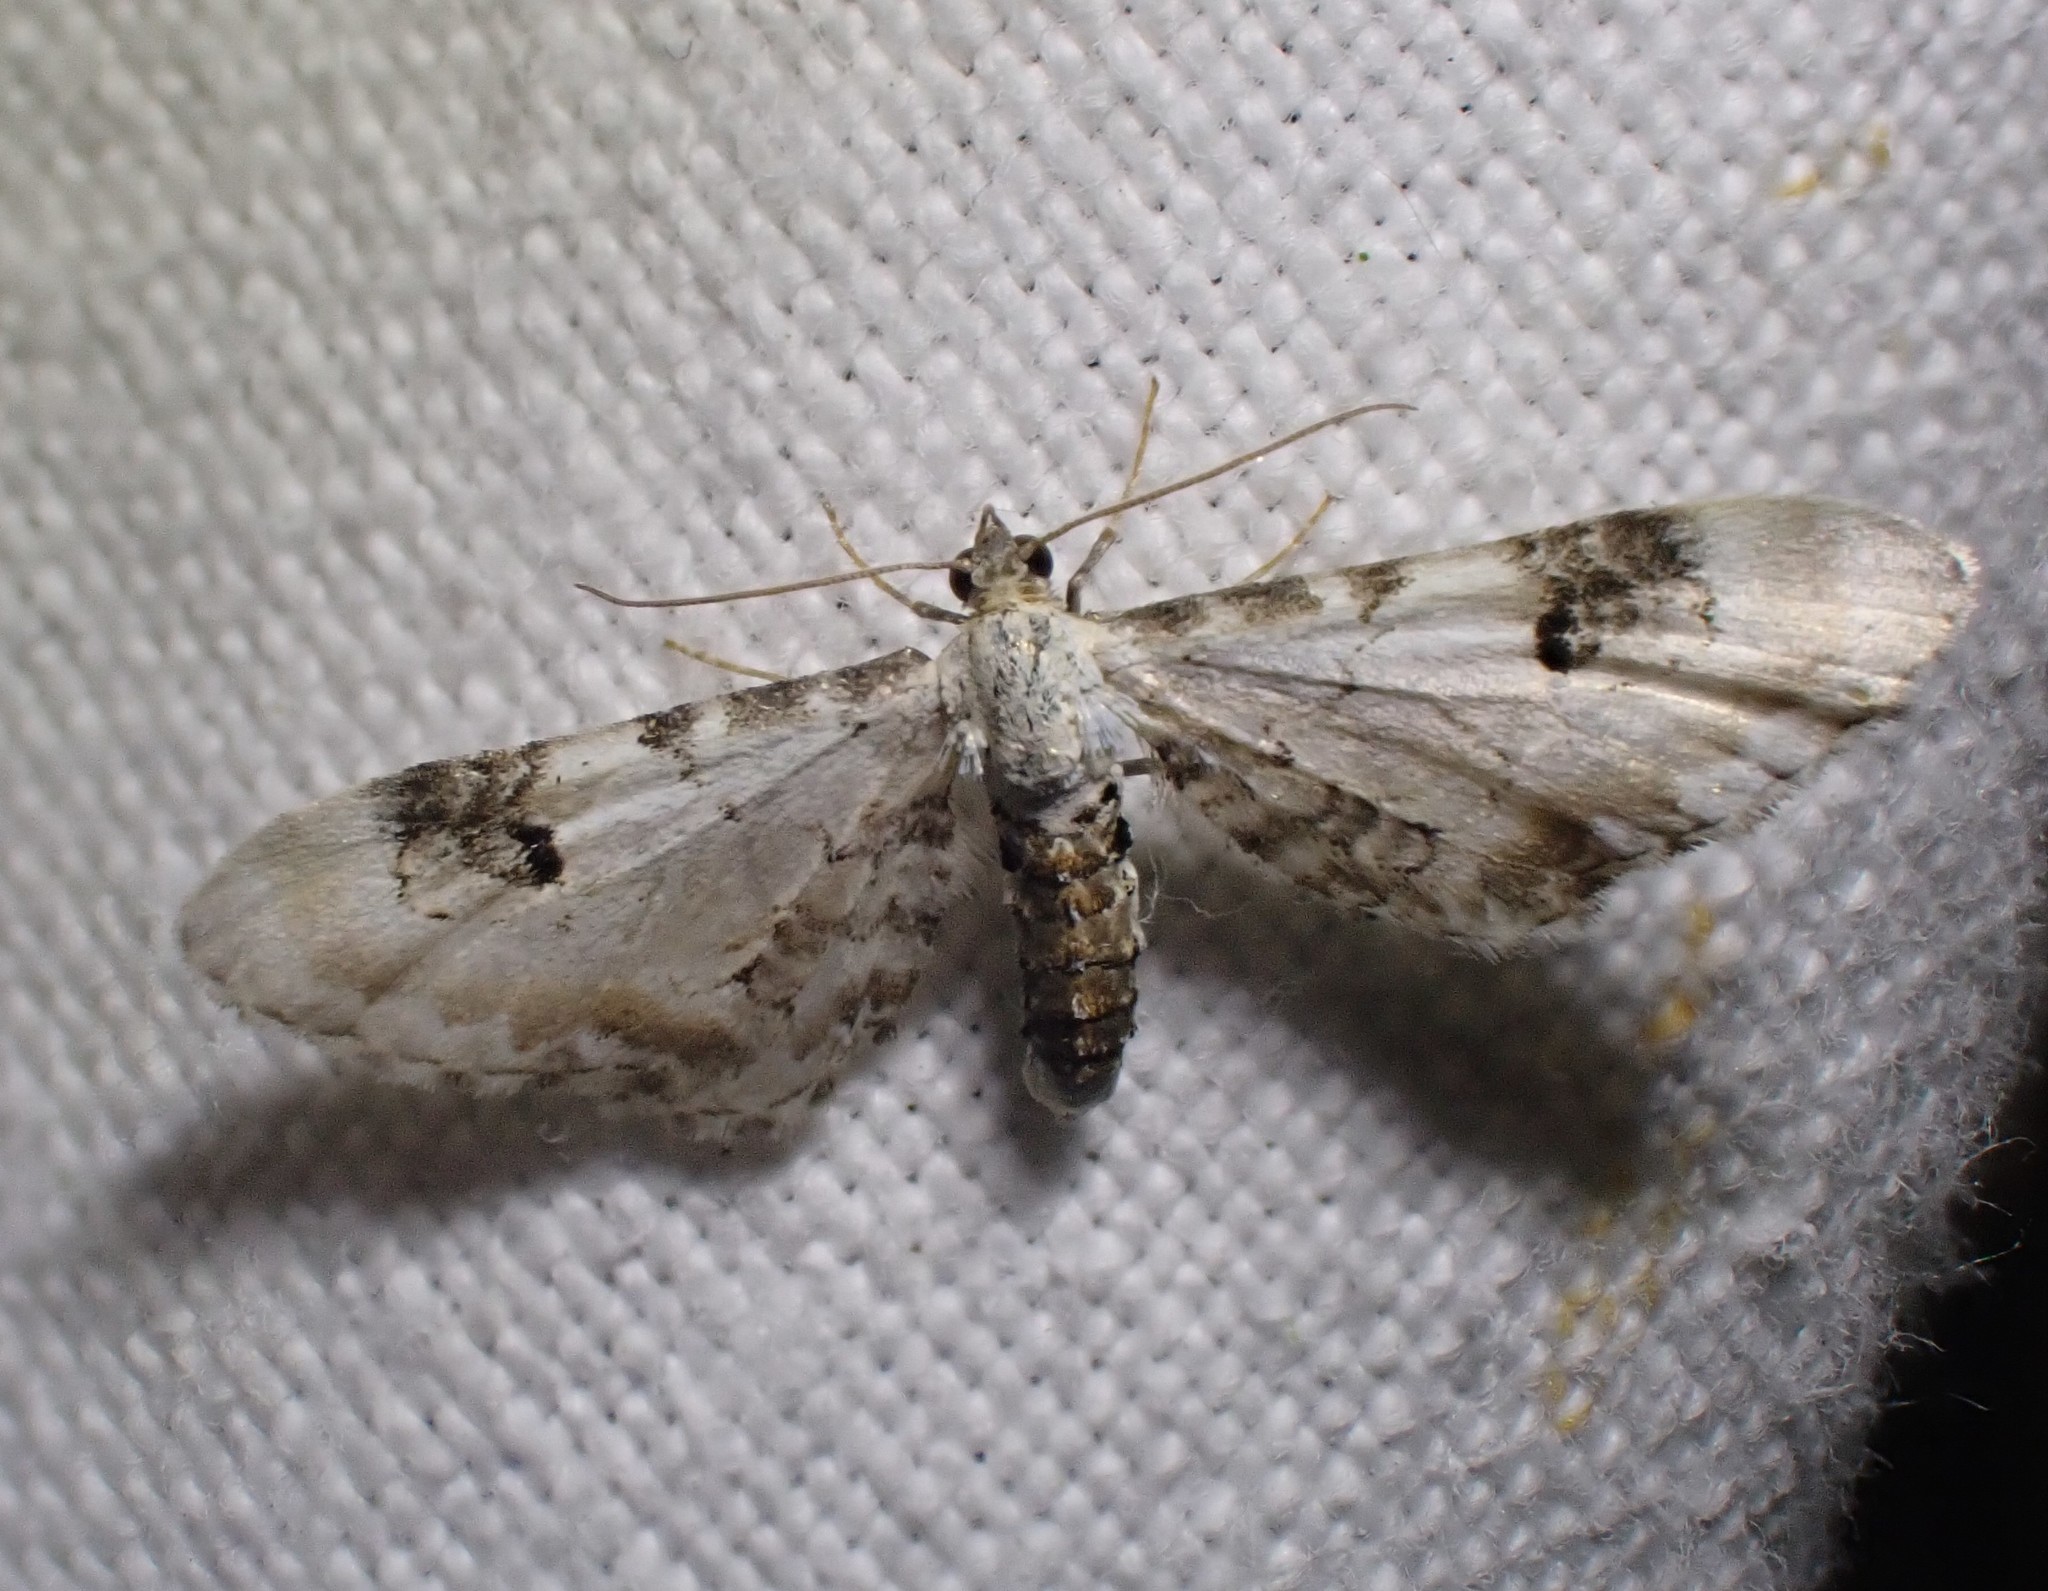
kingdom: Animalia
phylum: Arthropoda
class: Insecta
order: Lepidoptera
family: Geometridae
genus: Eupithecia
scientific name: Eupithecia centaureata
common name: Lime-speck pug
